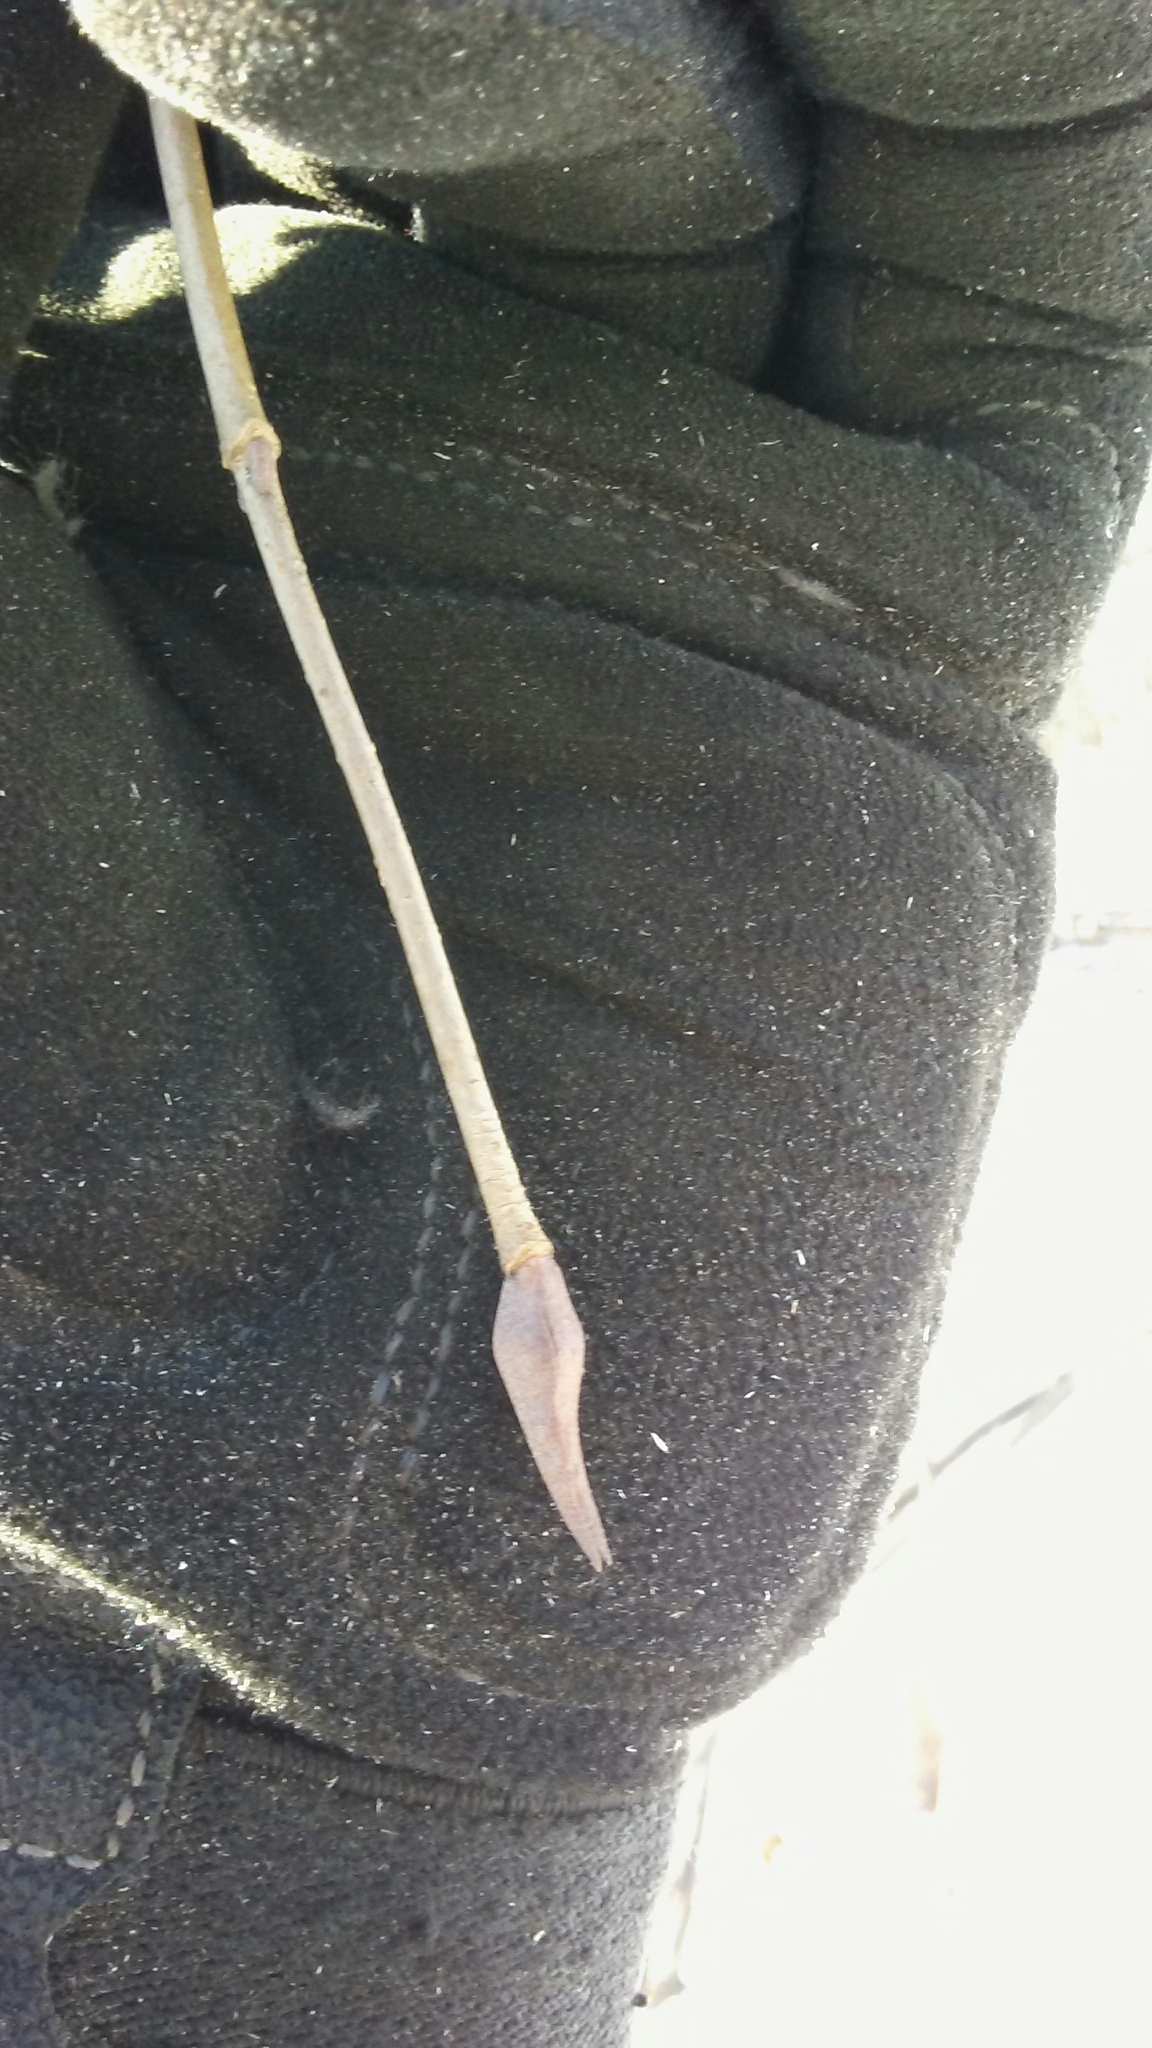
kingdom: Plantae
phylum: Tracheophyta
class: Magnoliopsida
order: Dipsacales
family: Viburnaceae
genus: Viburnum
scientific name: Viburnum lentago
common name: Black haw
